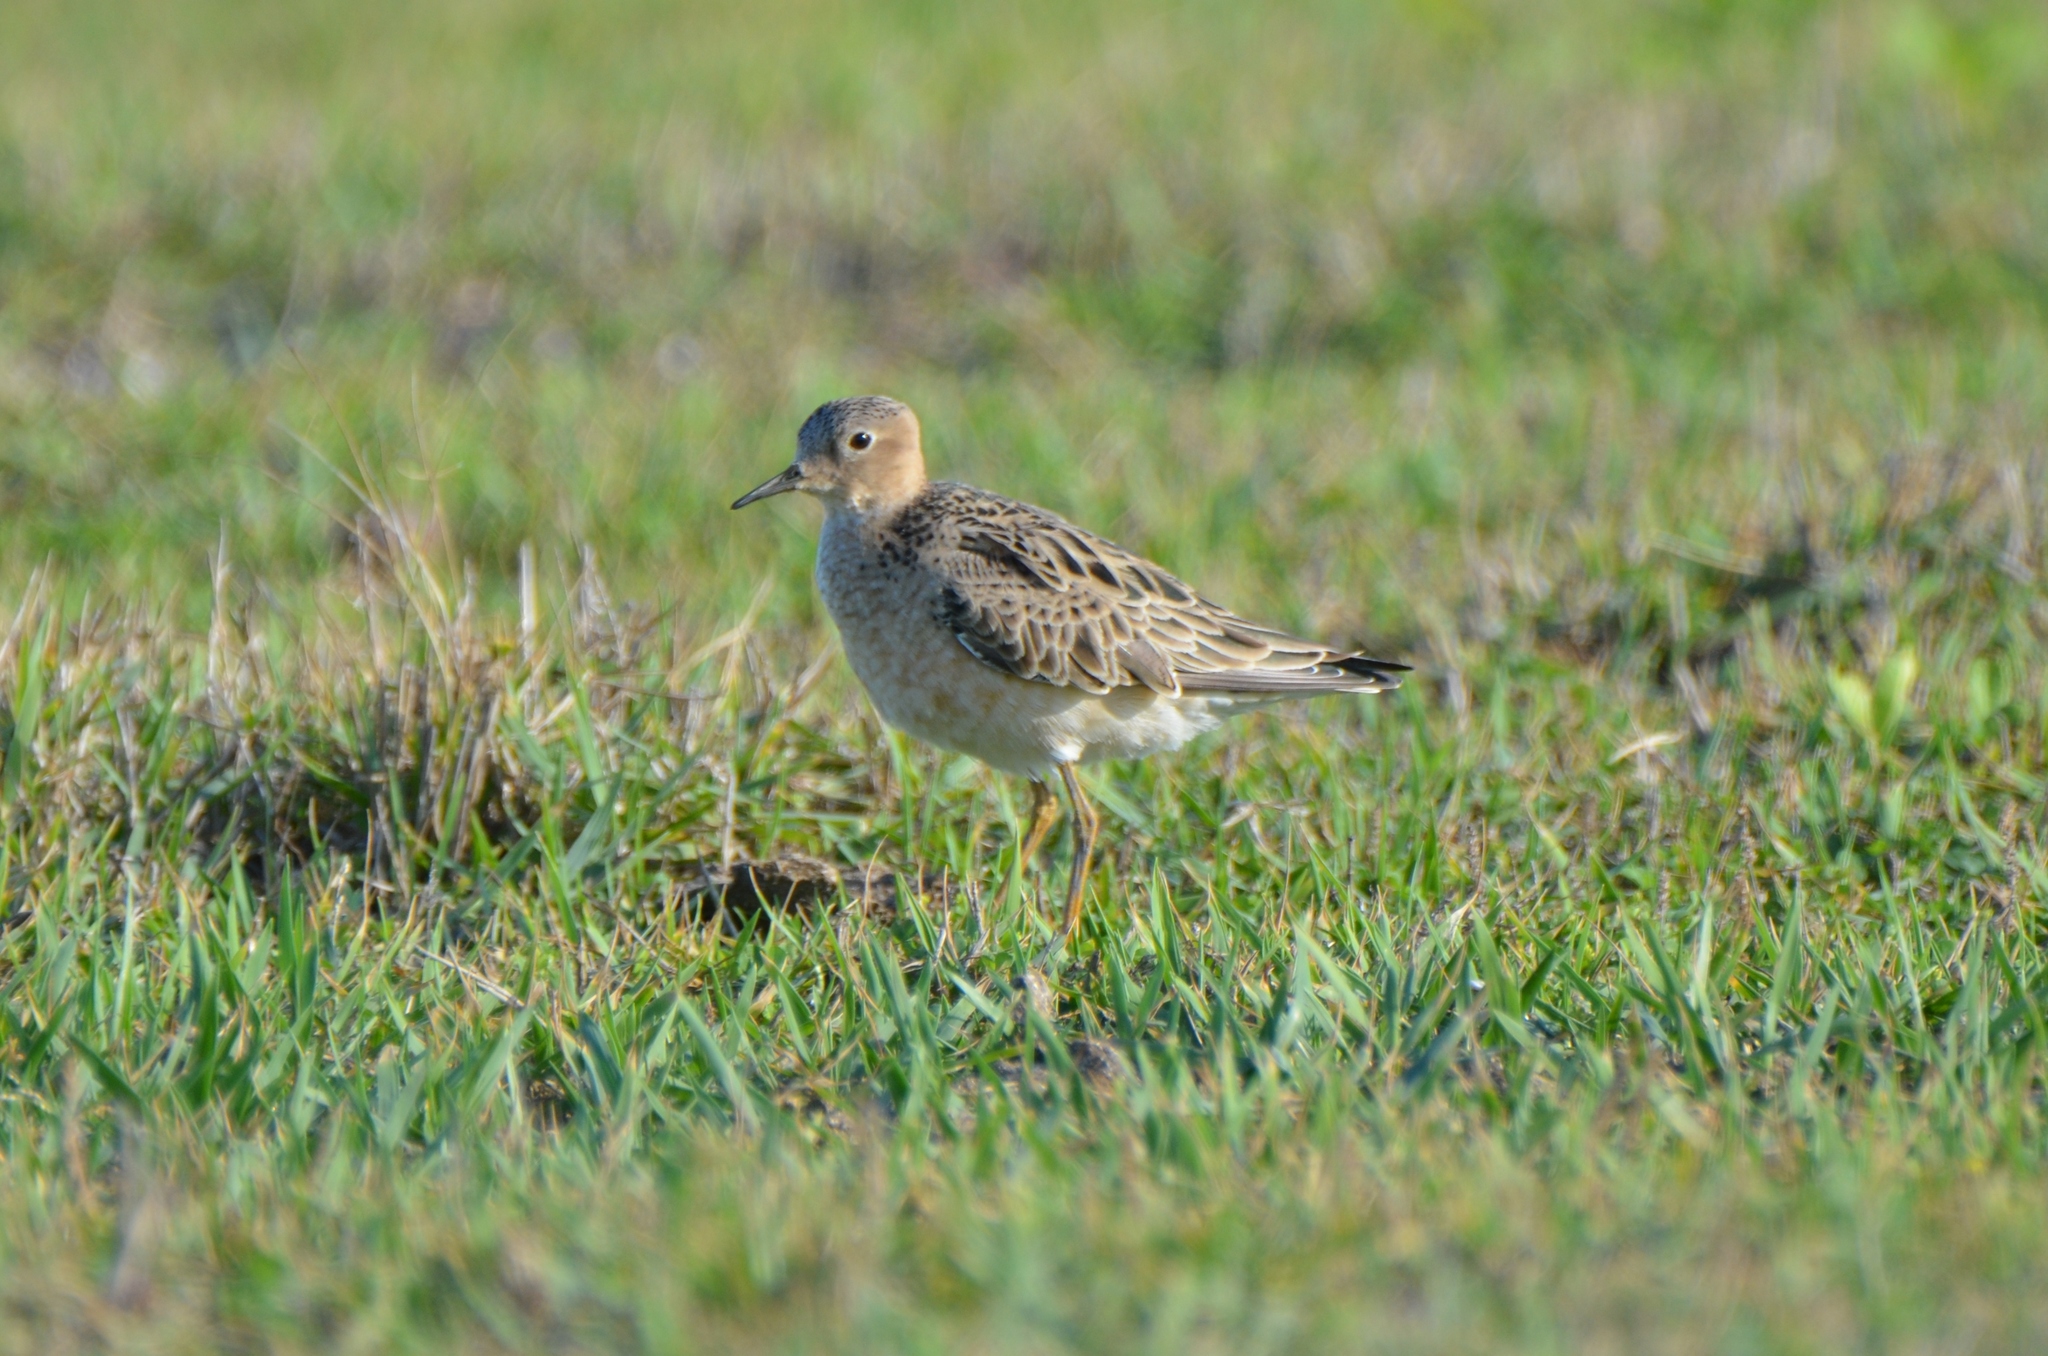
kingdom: Animalia
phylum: Chordata
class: Aves
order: Charadriiformes
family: Scolopacidae
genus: Calidris
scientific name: Calidris subruficollis
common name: Buff-breasted sandpiper
